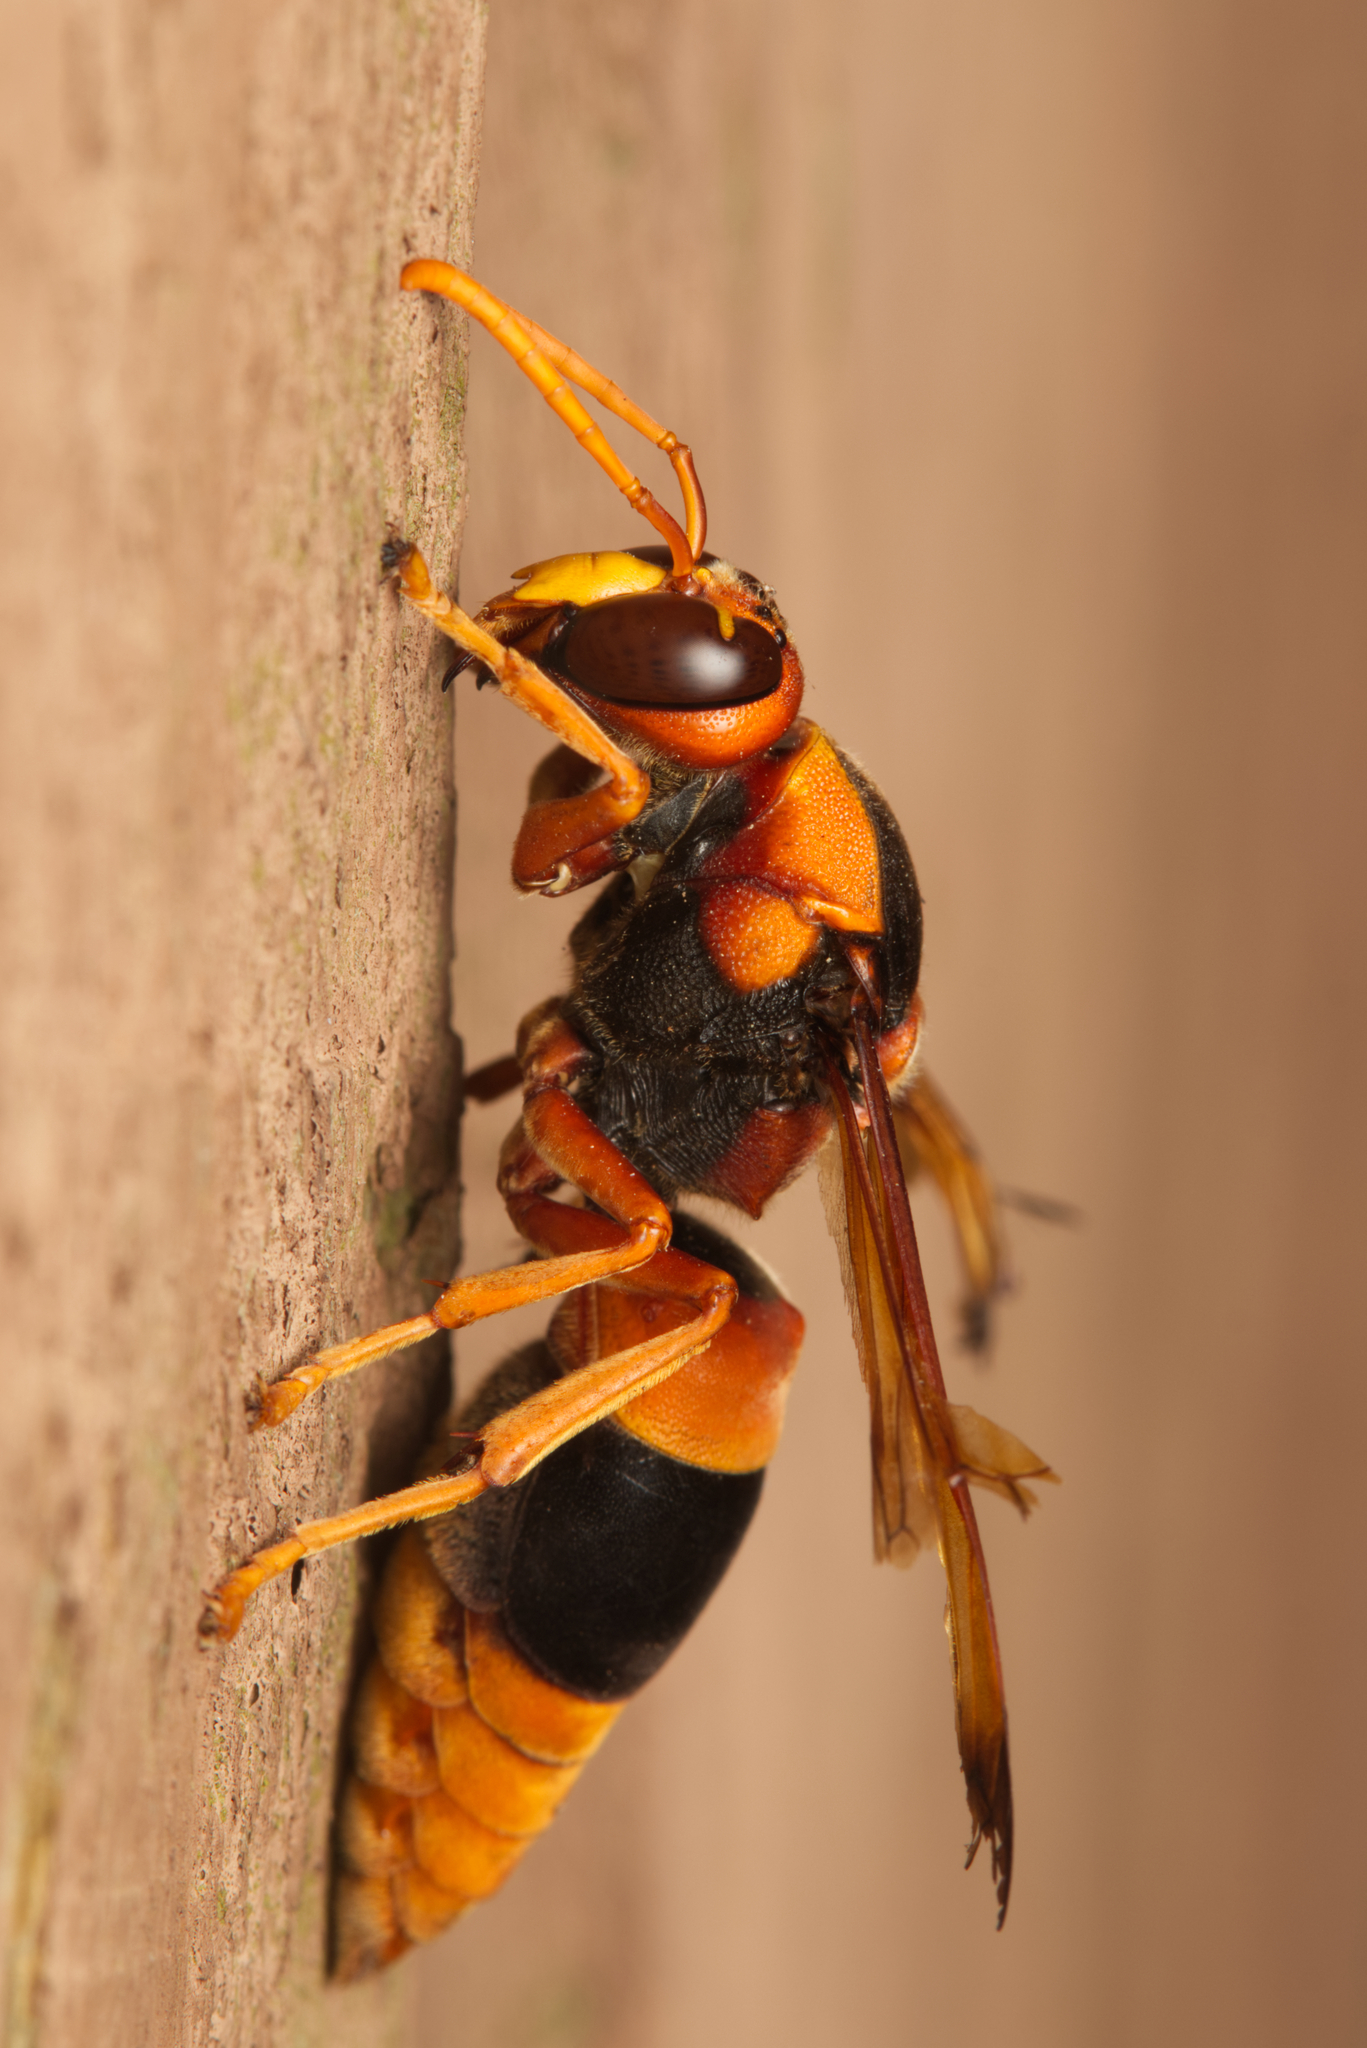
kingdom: Animalia
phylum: Arthropoda
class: Insecta
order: Hymenoptera
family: Eumenidae
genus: Abispa
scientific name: Abispa ephippium
